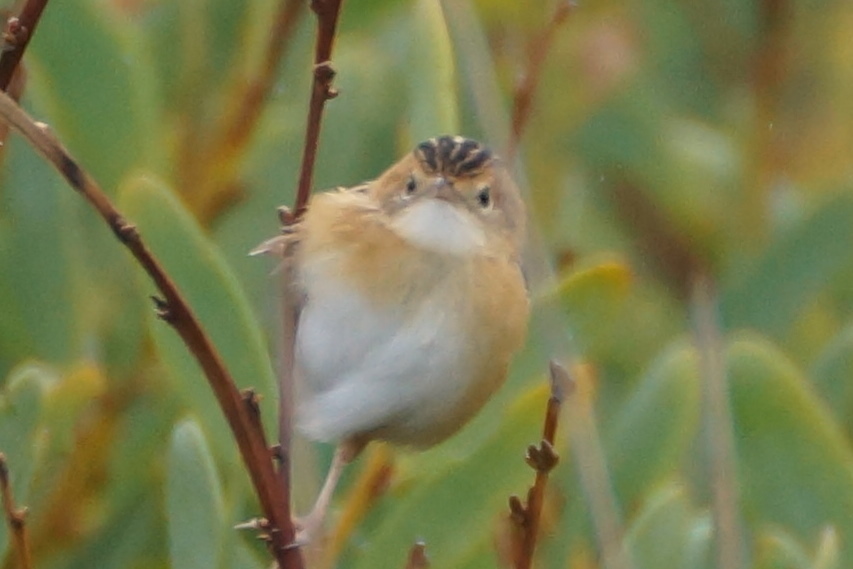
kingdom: Animalia
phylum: Chordata
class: Aves
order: Passeriformes
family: Cisticolidae
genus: Cisticola
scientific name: Cisticola exilis
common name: Golden-headed cisticola
